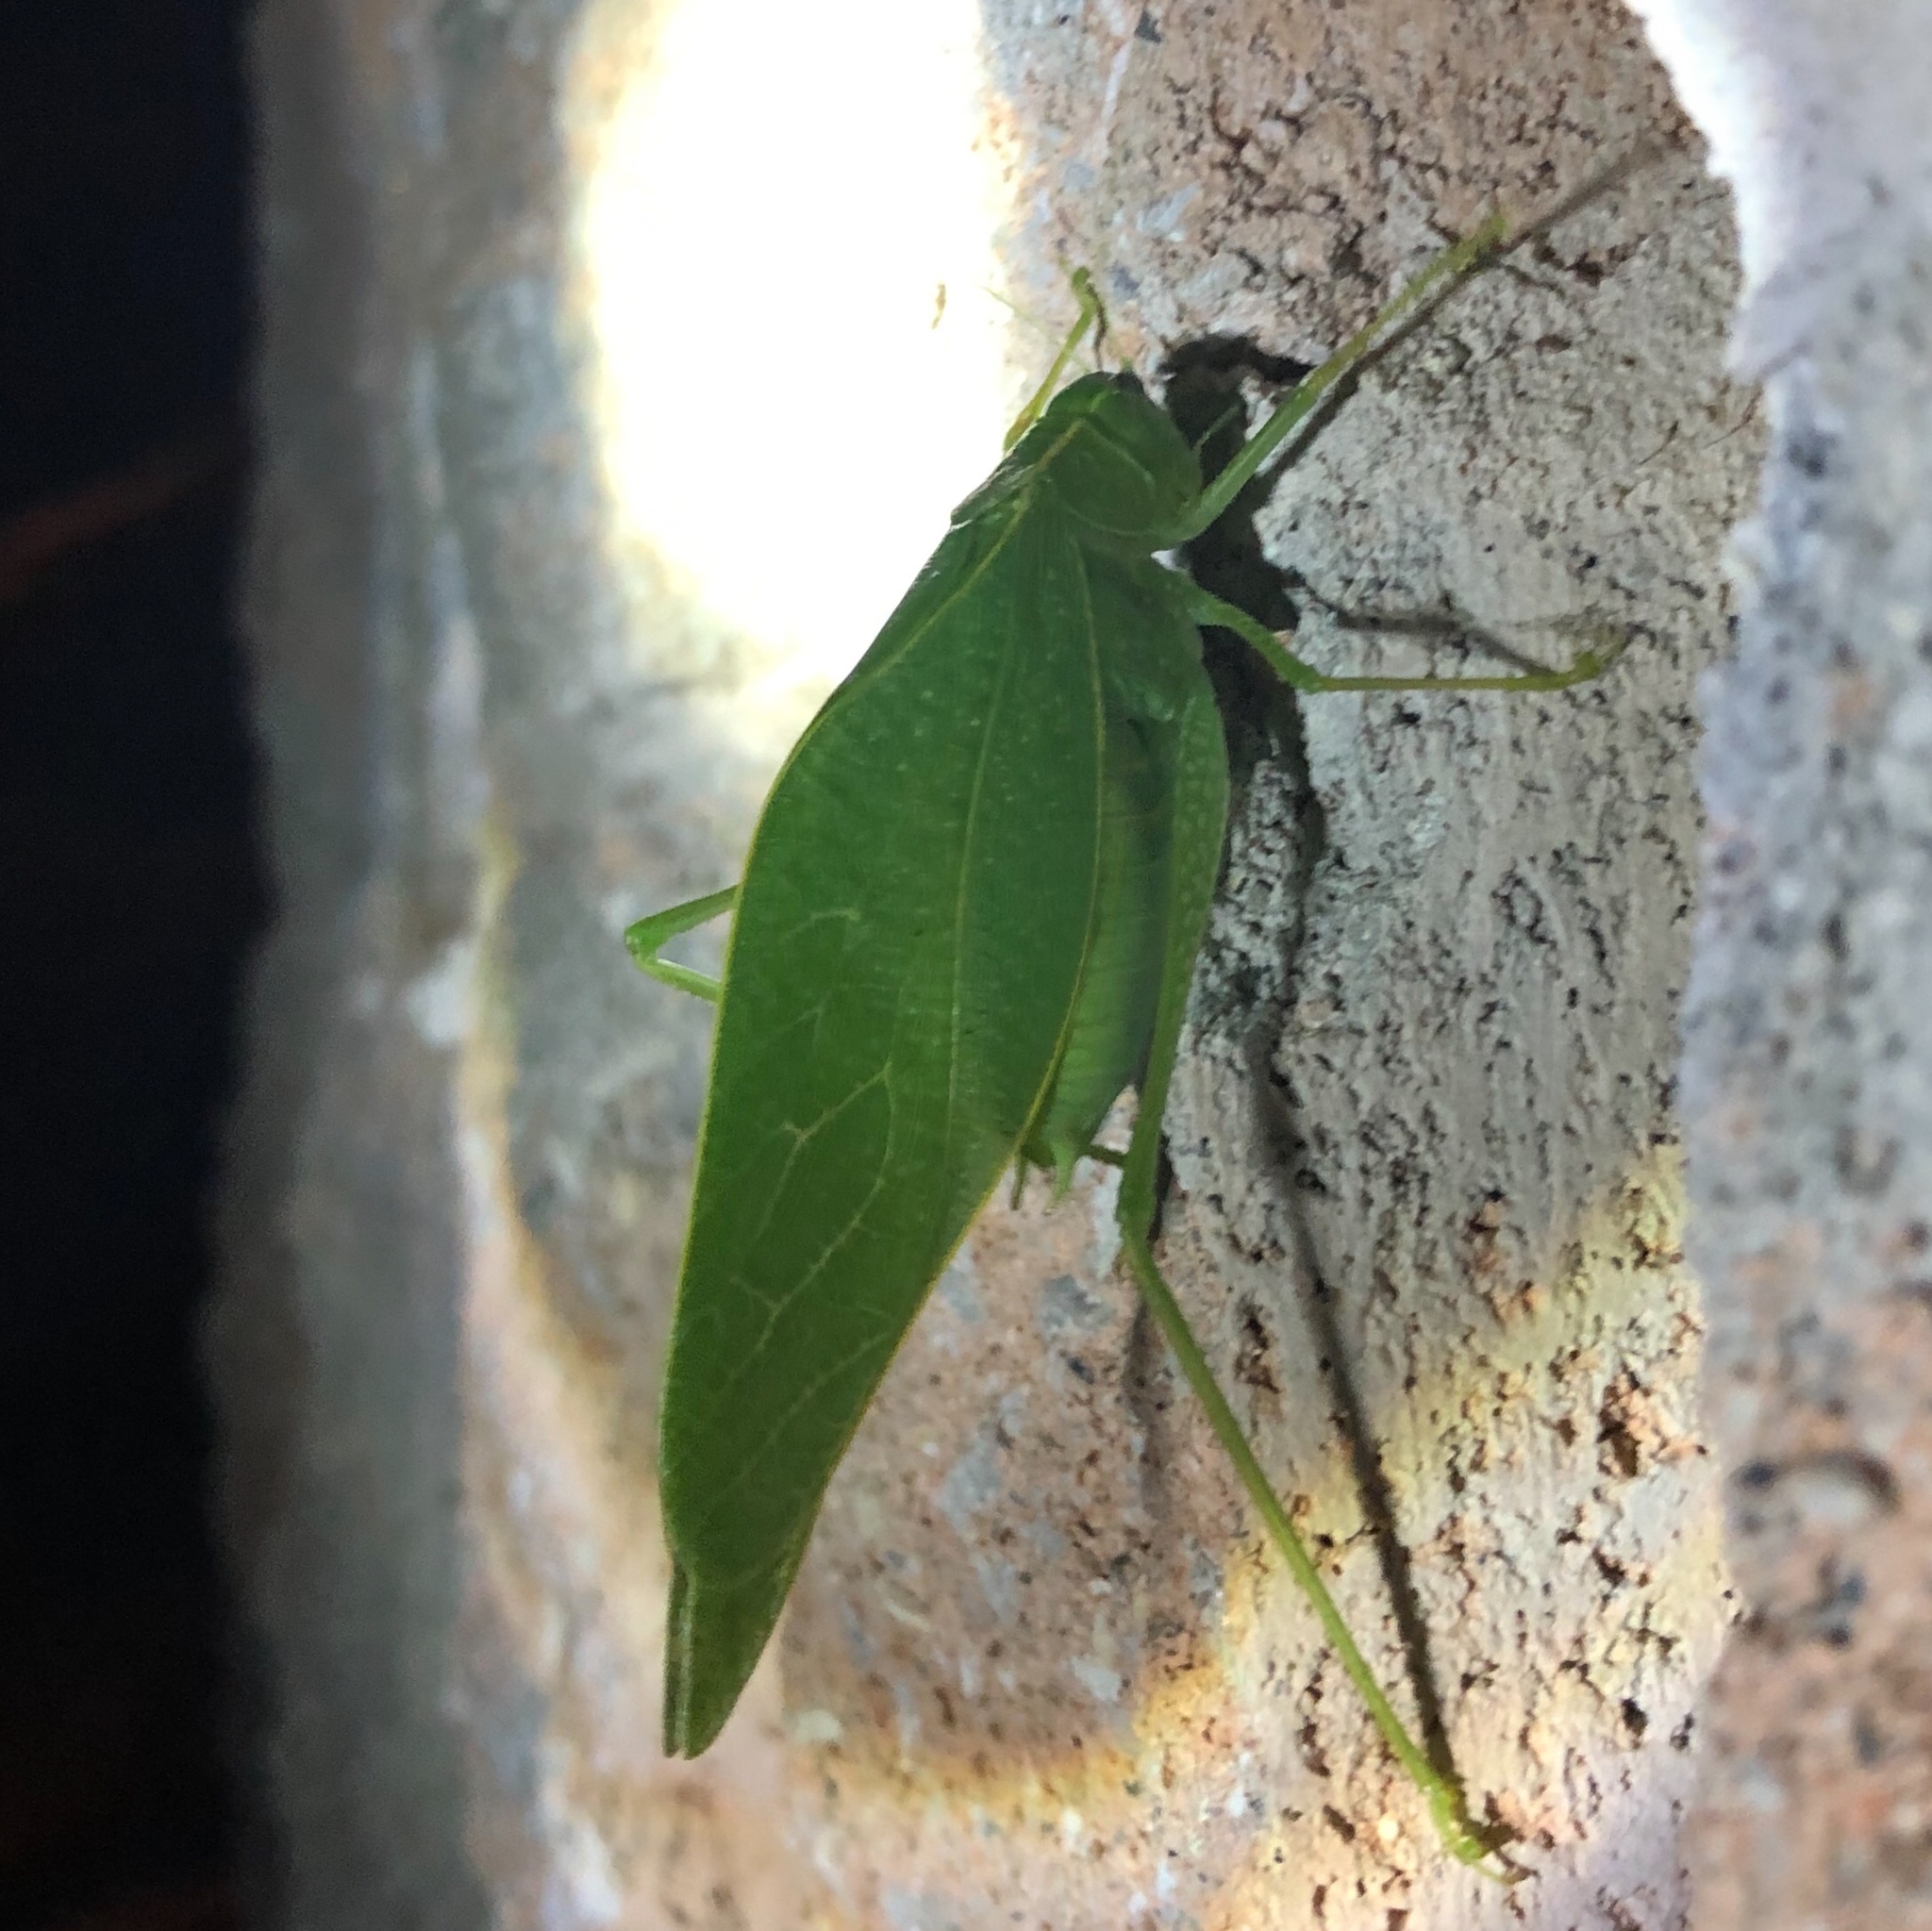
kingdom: Animalia
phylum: Arthropoda
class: Insecta
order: Orthoptera
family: Tettigoniidae
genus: Microcentrum
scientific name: Microcentrum rhombifolium
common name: Broad-winged katydid
